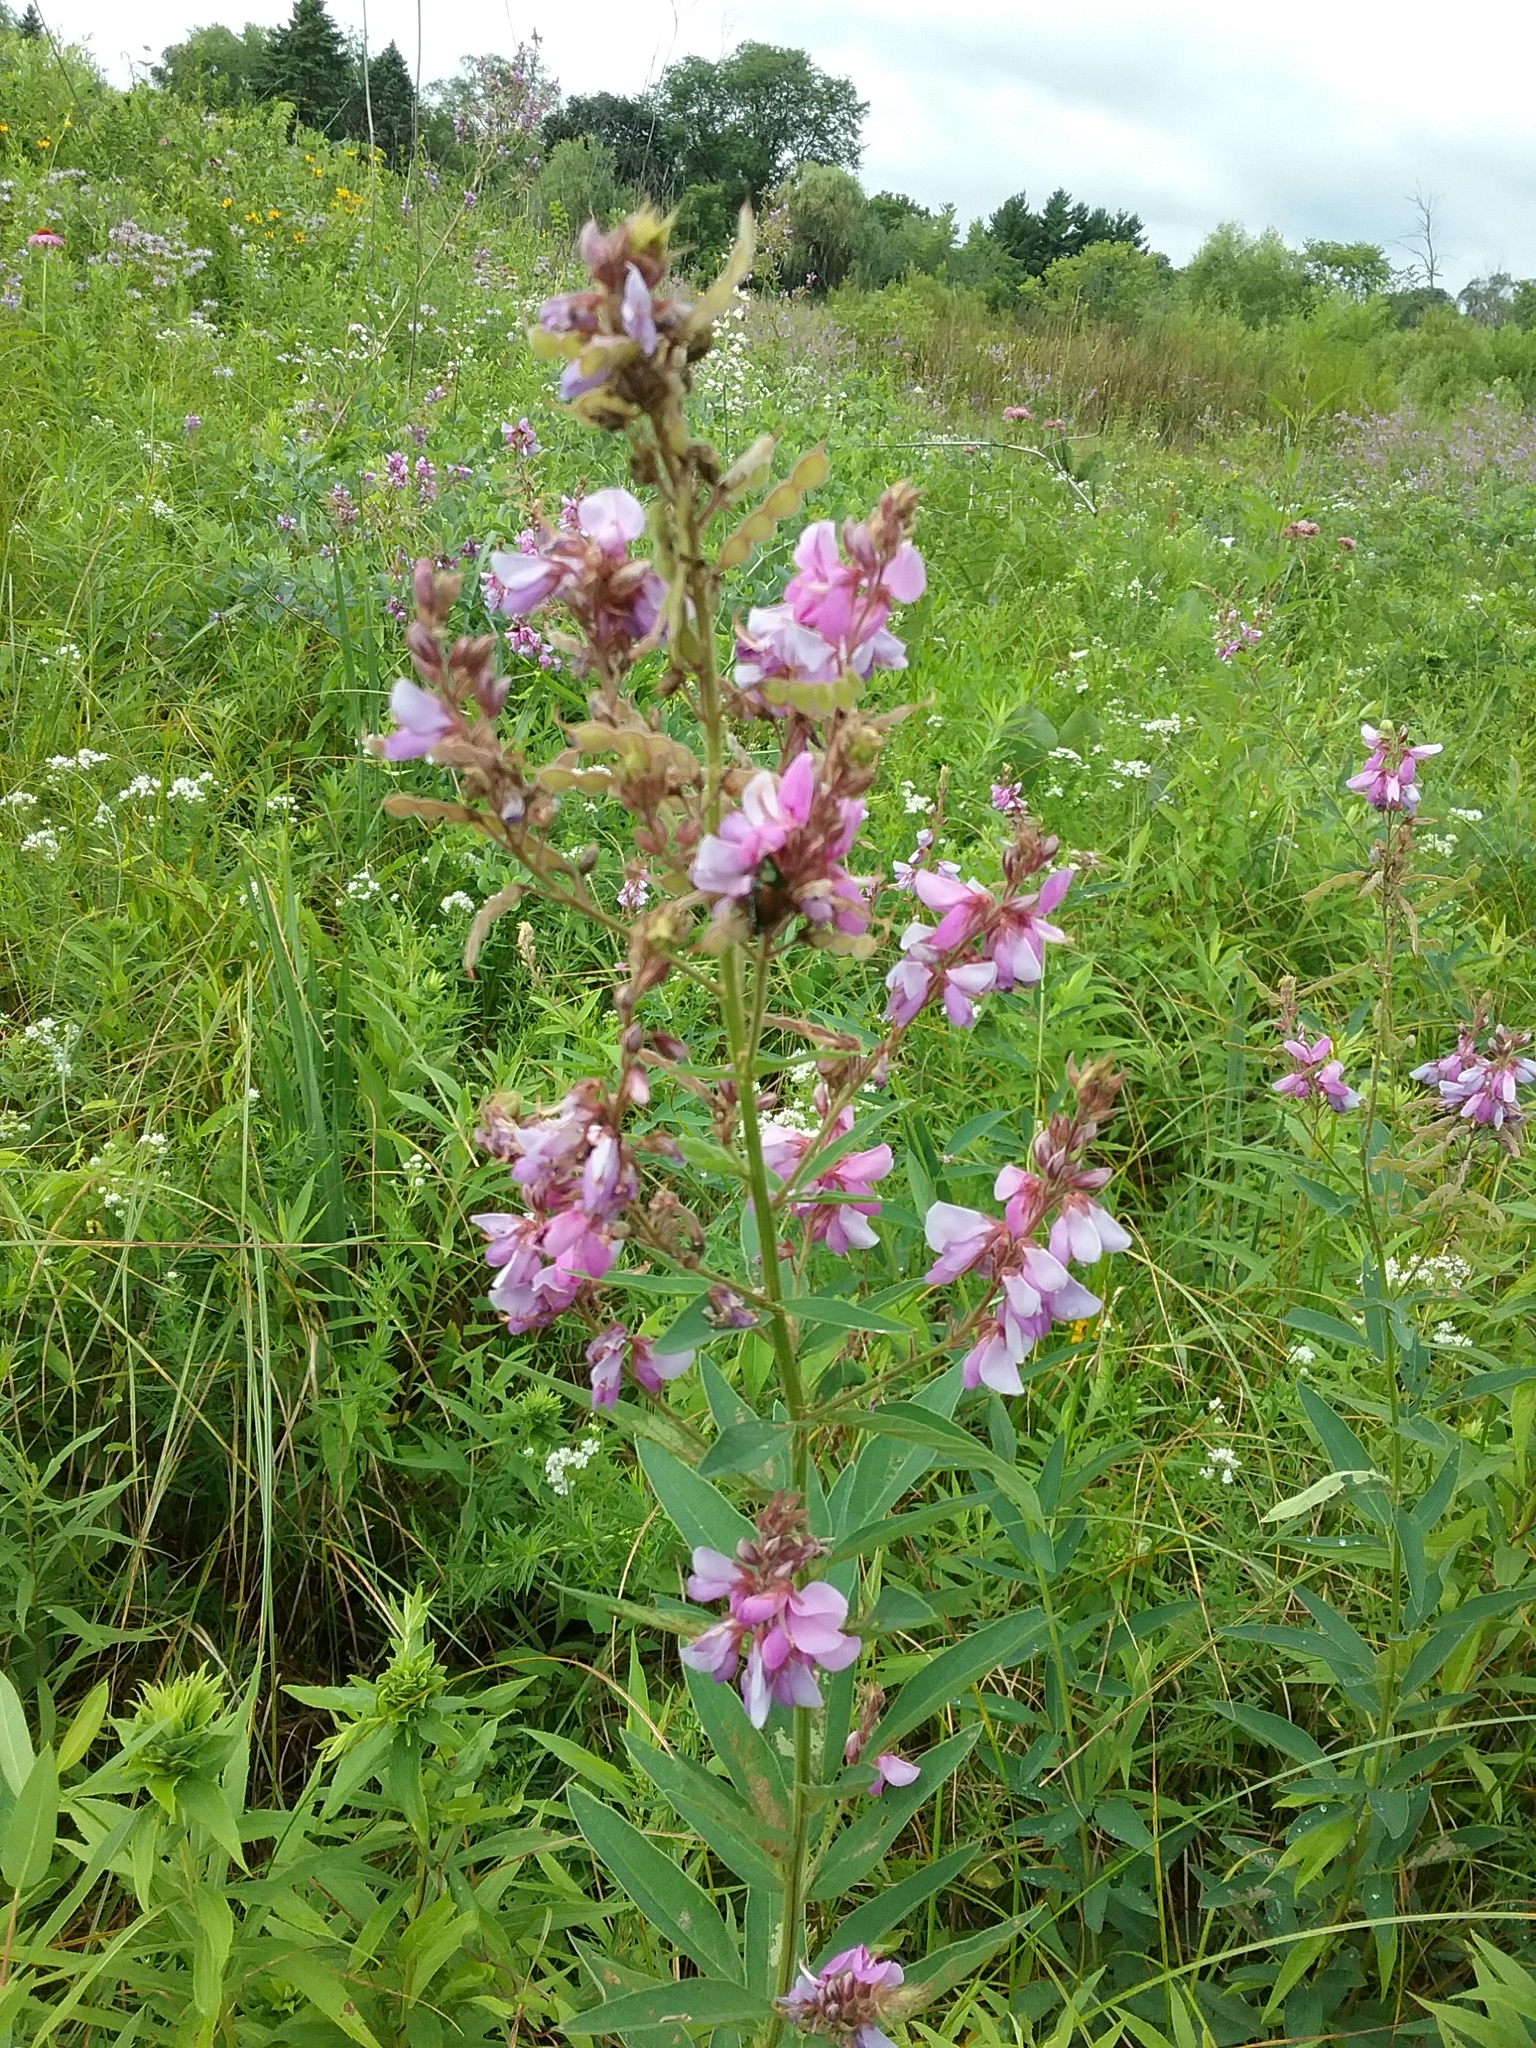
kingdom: Plantae
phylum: Tracheophyta
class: Magnoliopsida
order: Fabales
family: Fabaceae
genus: Desmodium
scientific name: Desmodium canadense
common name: Canada tick-trefoil
